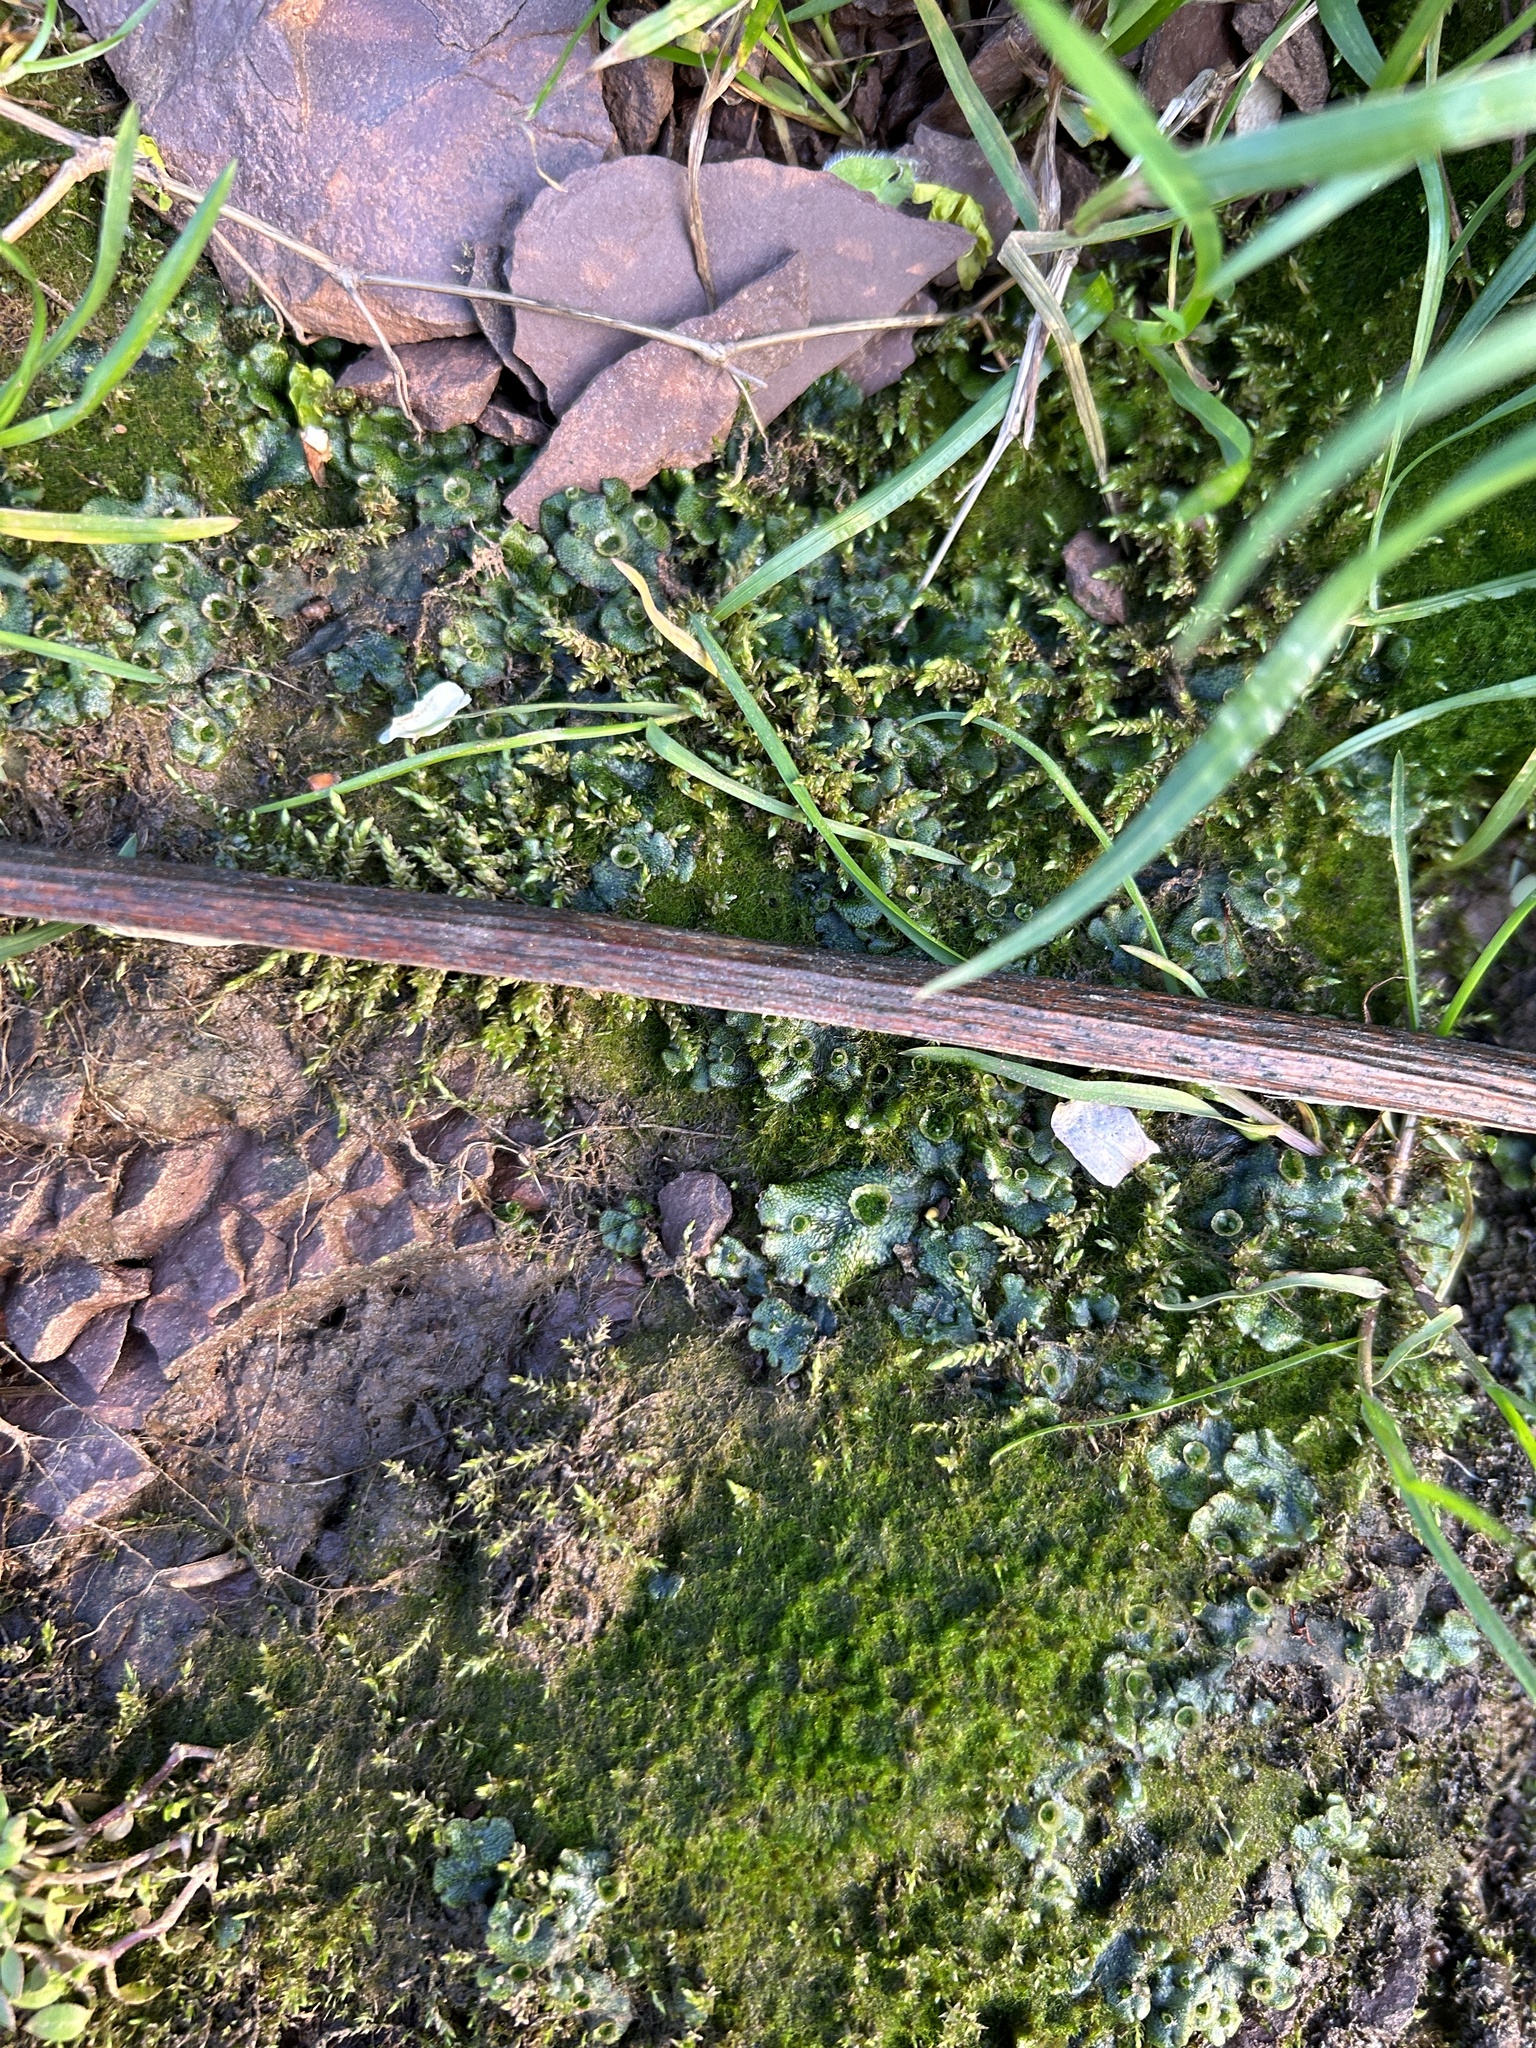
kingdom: Plantae
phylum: Marchantiophyta
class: Marchantiopsida
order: Marchantiales
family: Marchantiaceae
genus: Marchantia
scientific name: Marchantia polymorpha
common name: Common liverwort
